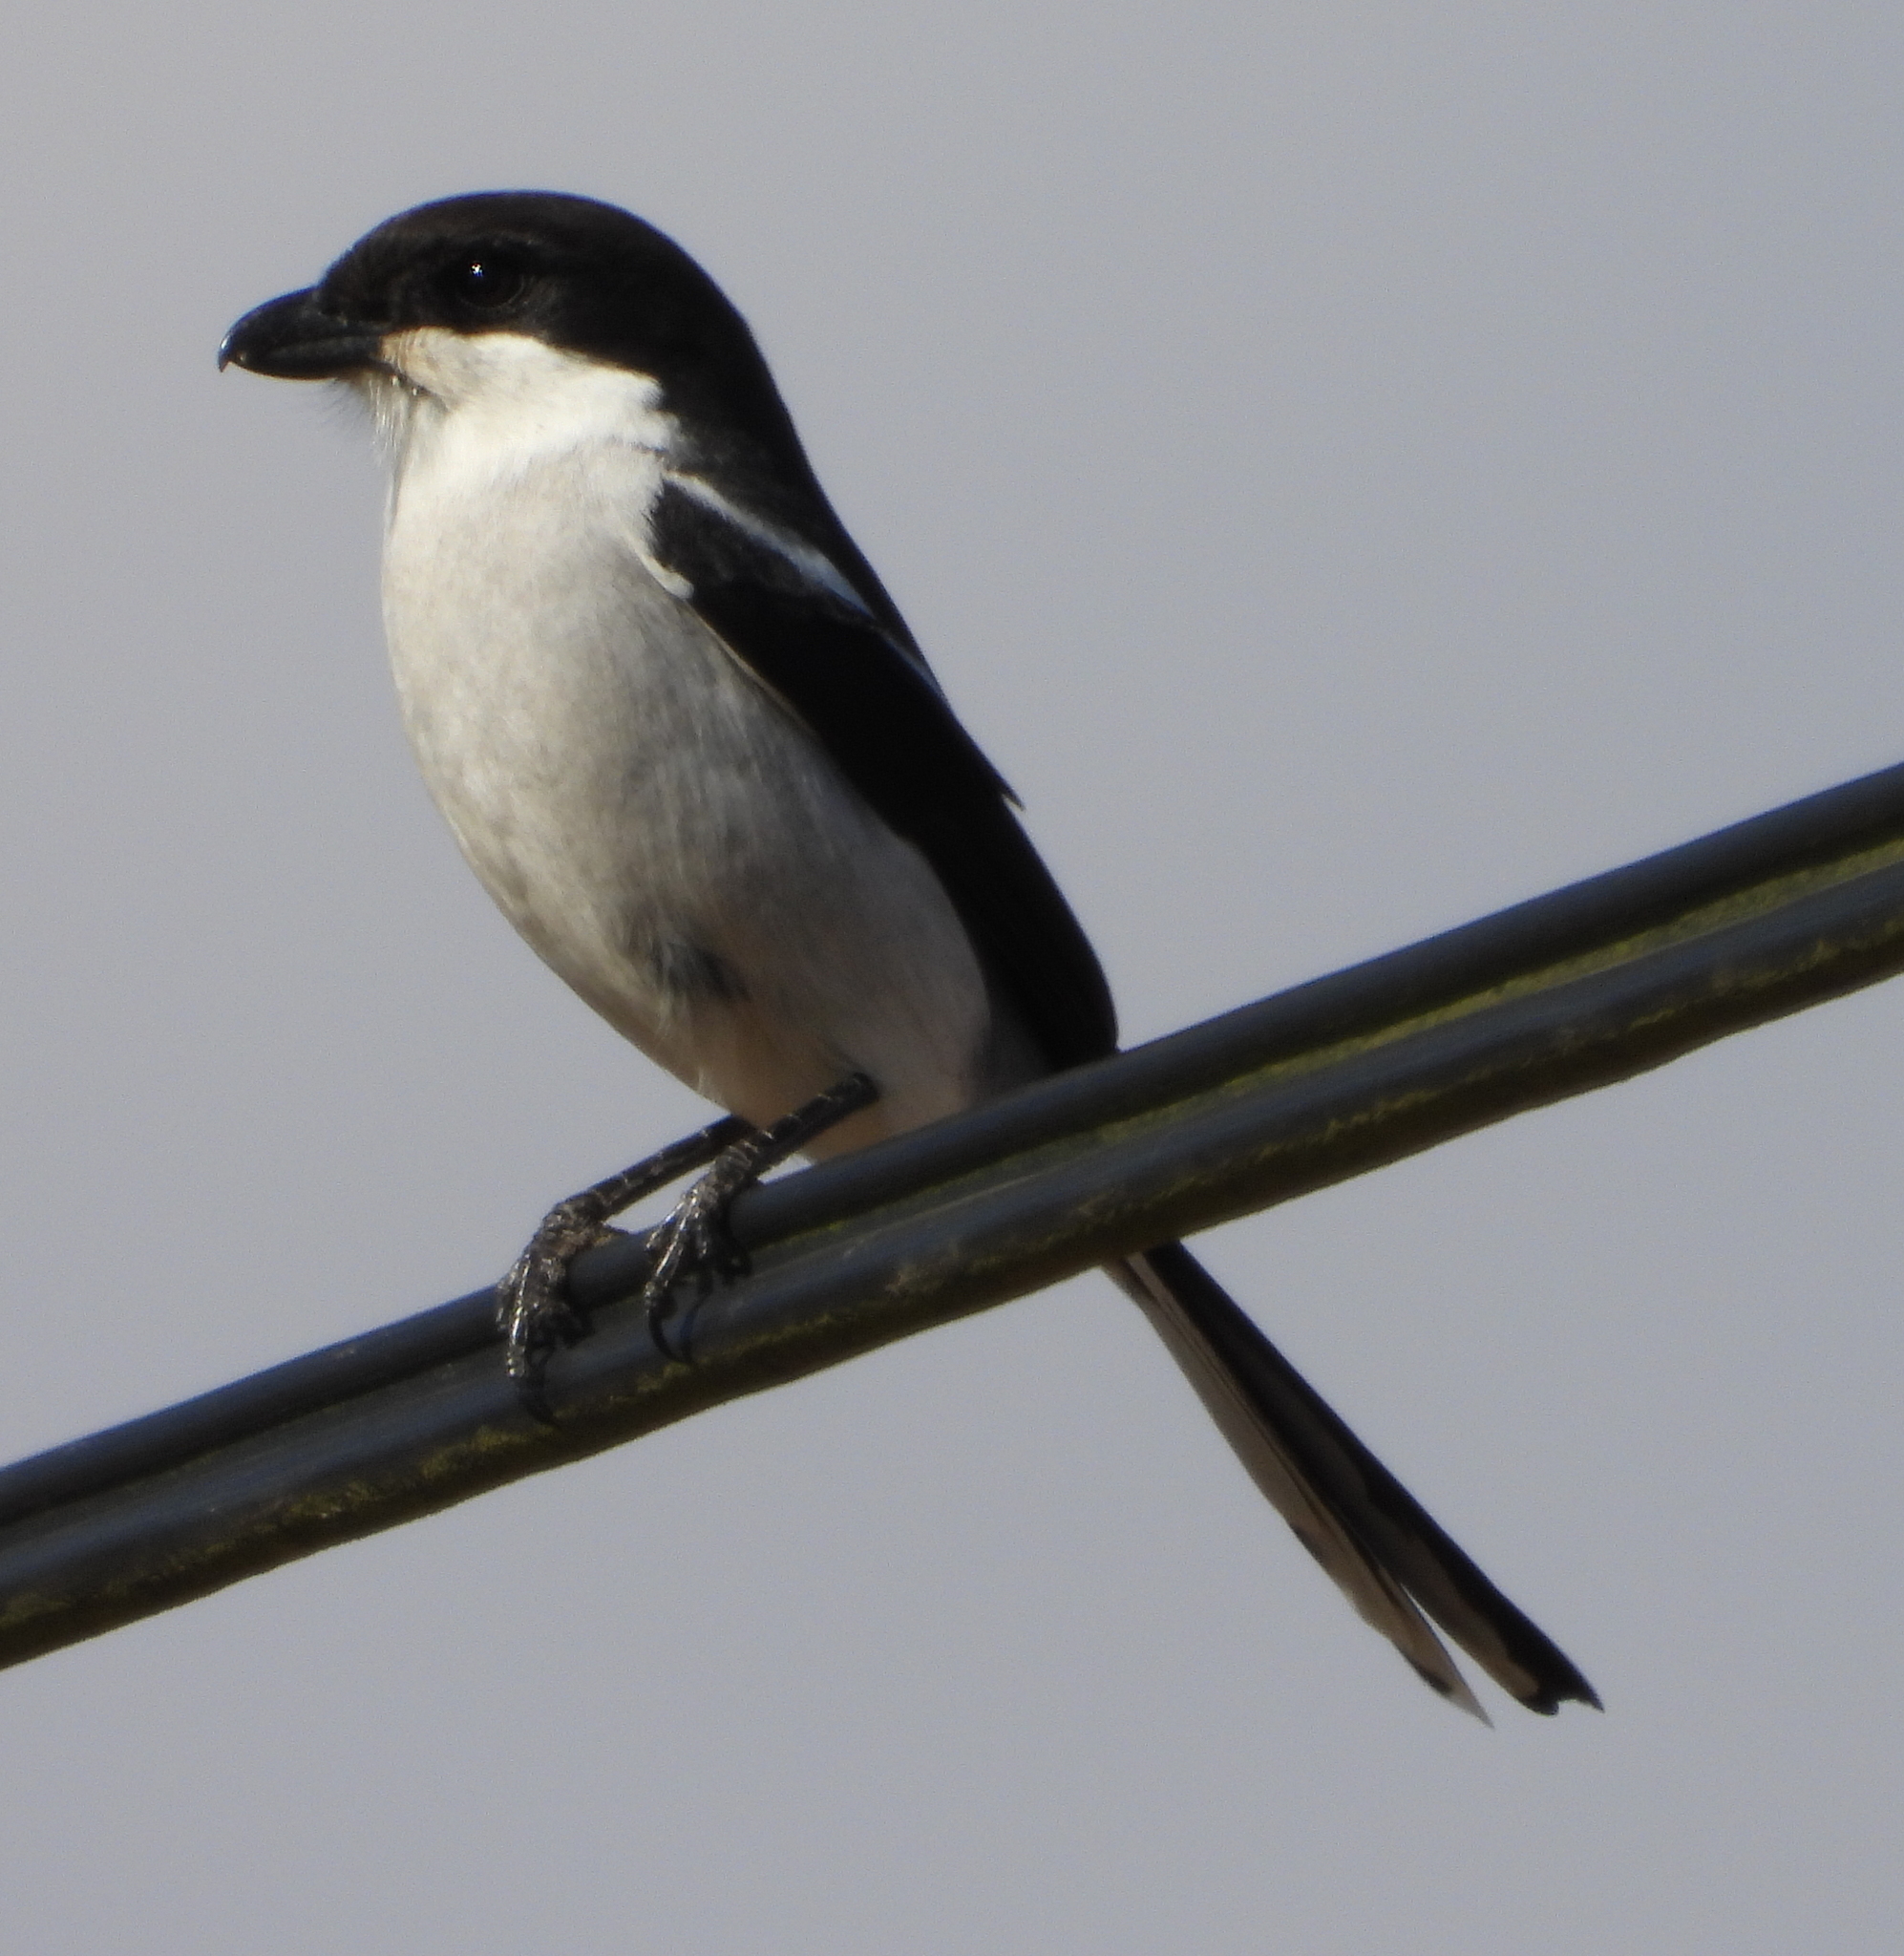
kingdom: Animalia
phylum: Chordata
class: Aves
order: Passeriformes
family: Laniidae
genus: Lanius
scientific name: Lanius collaris
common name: Southern fiscal
